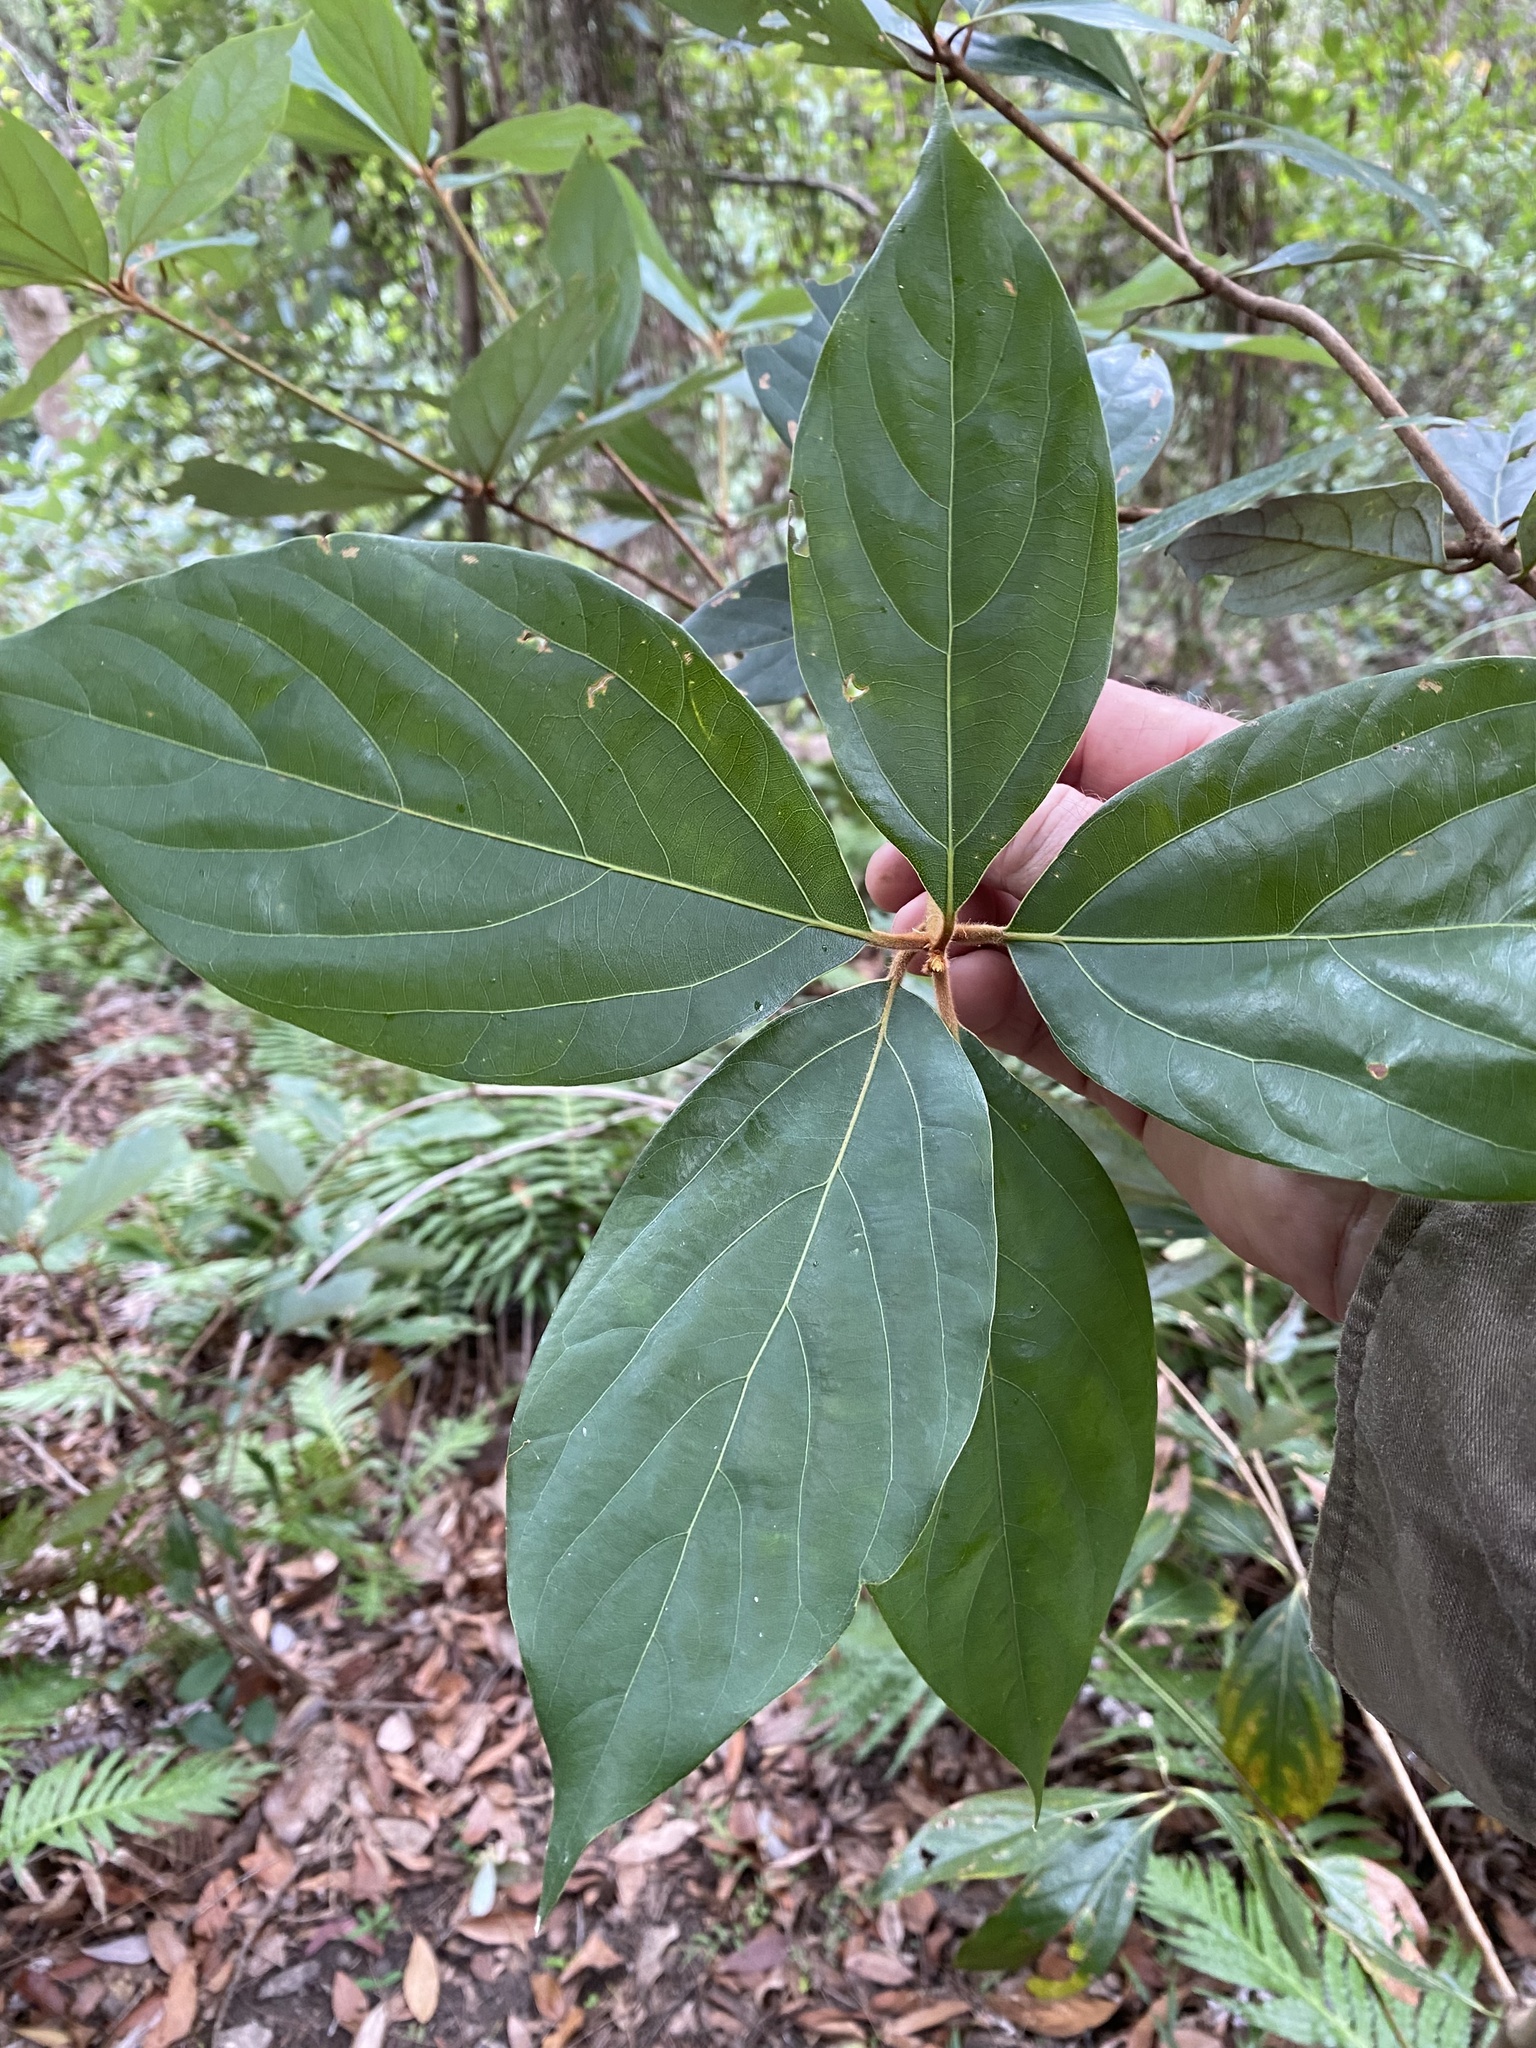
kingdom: Plantae
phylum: Tracheophyta
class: Magnoliopsida
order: Laurales
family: Lauraceae
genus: Neolitsea
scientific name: Neolitsea dealbata
